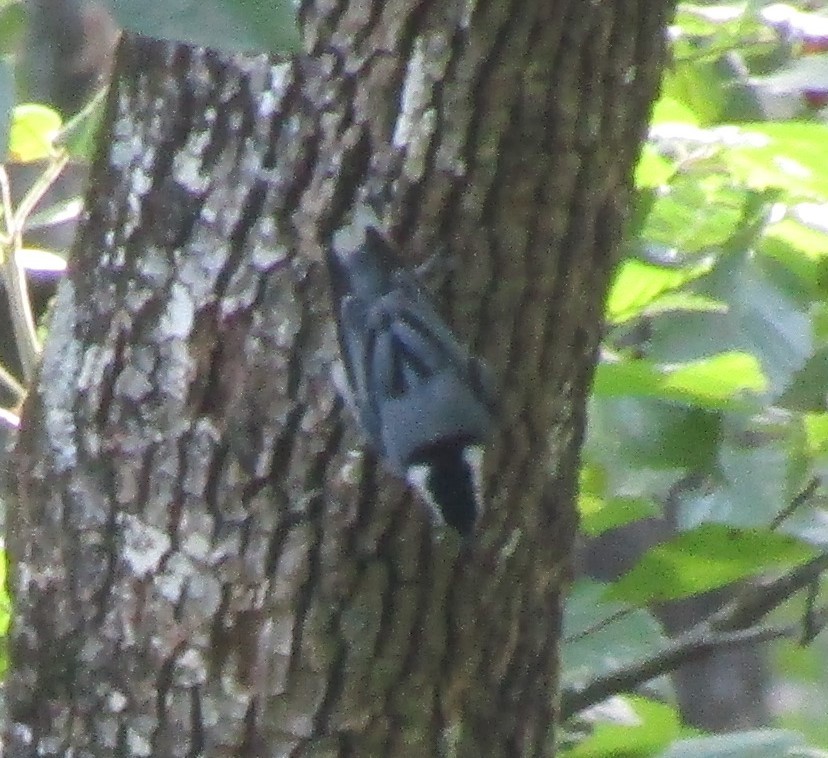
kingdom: Animalia
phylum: Chordata
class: Aves
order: Passeriformes
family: Sittidae
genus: Sitta
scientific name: Sitta carolinensis
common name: White-breasted nuthatch
